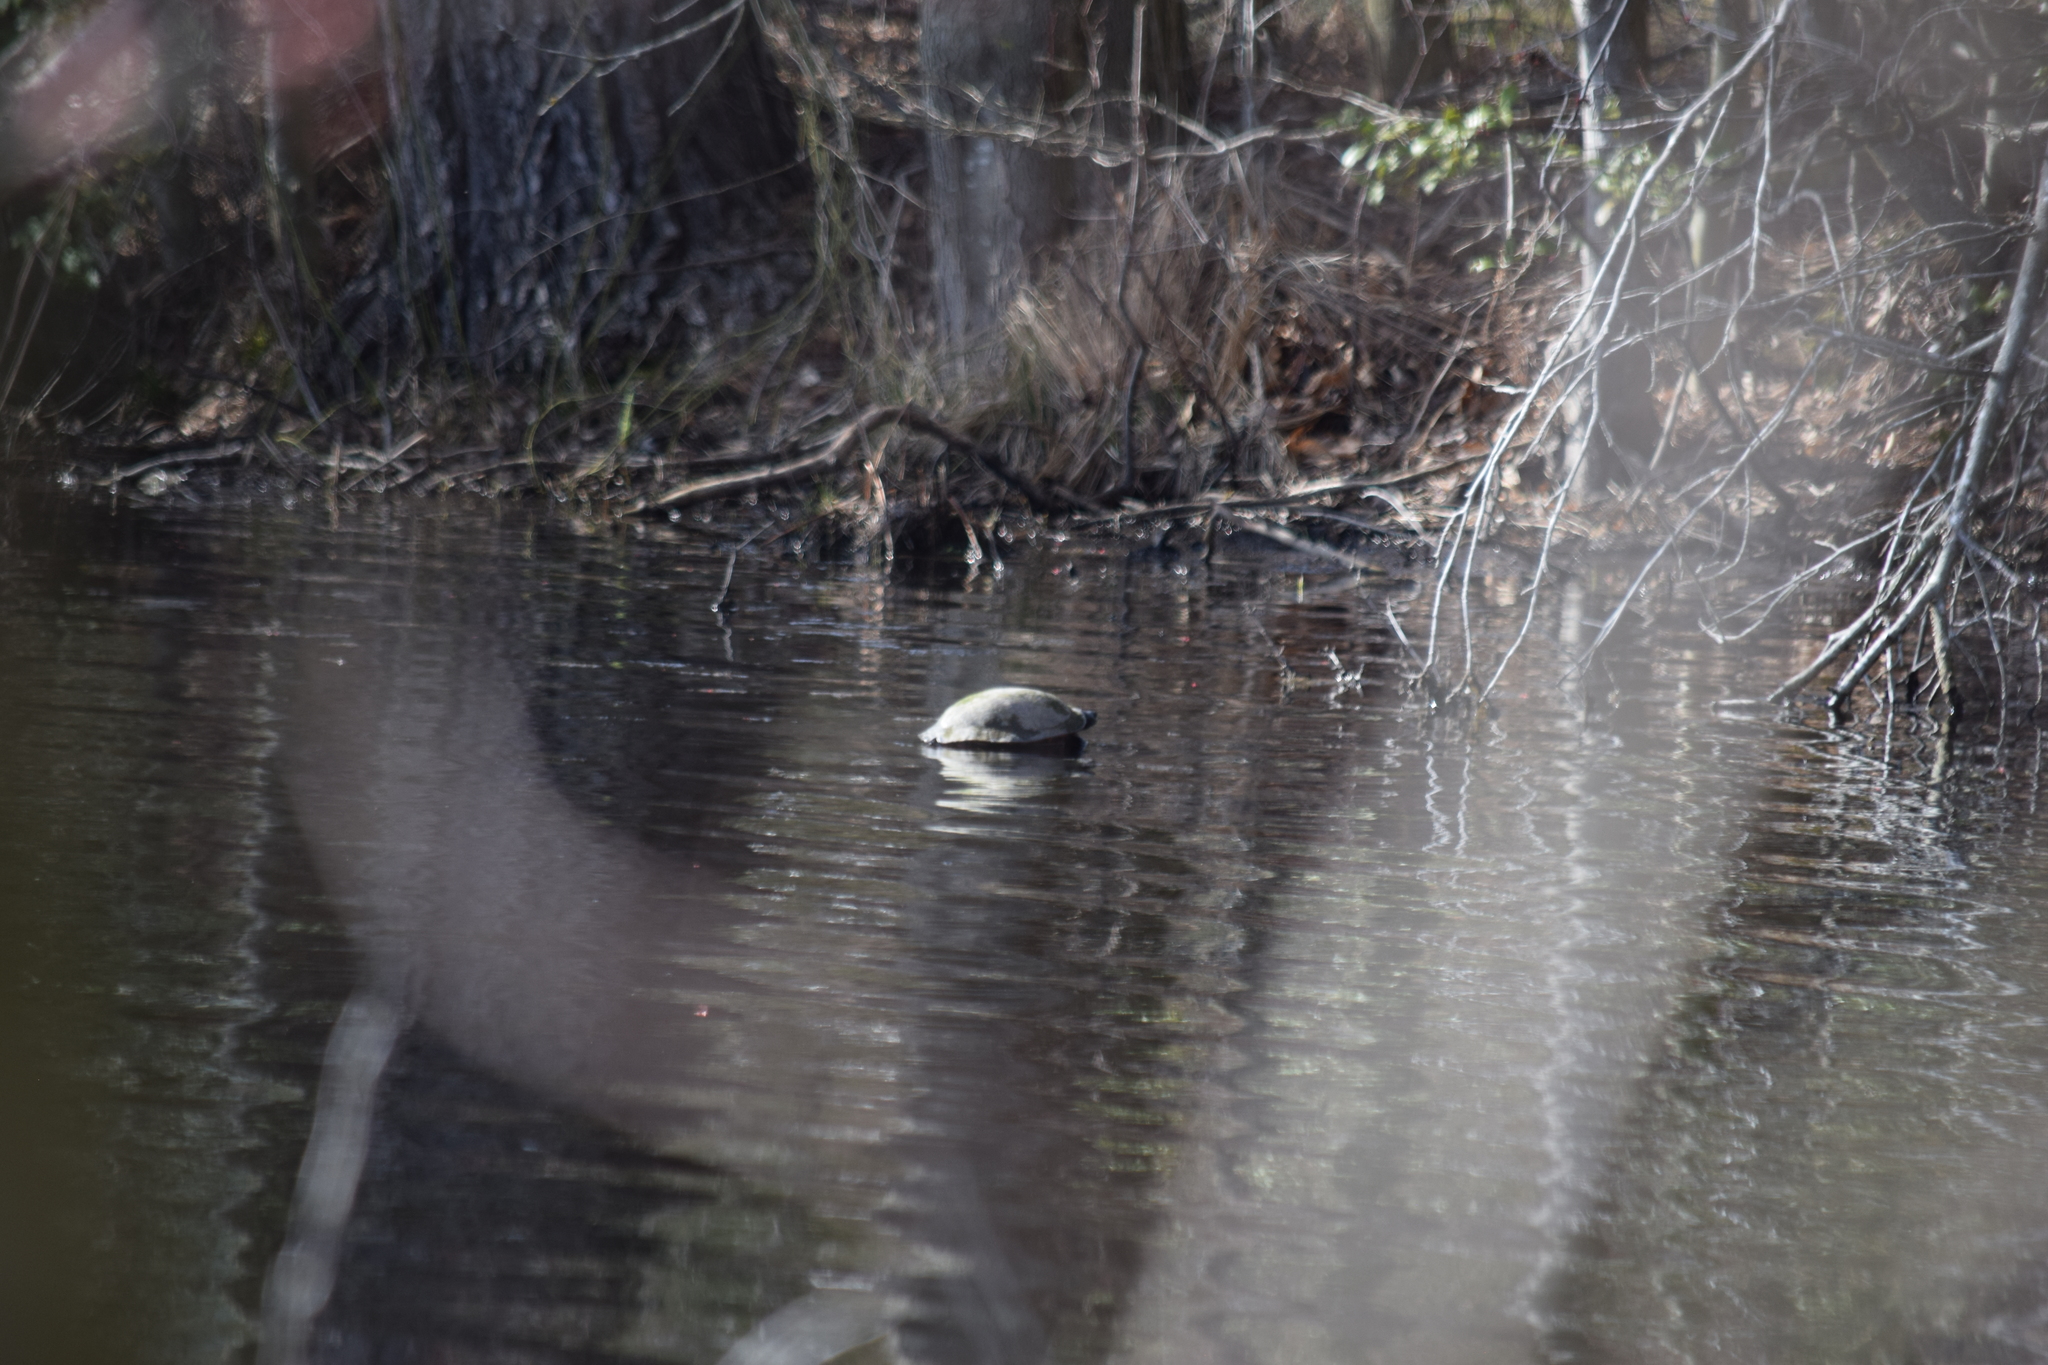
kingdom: Animalia
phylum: Chordata
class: Testudines
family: Emydidae
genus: Pseudemys
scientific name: Pseudemys rubriventris
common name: American red-bellied turtle
